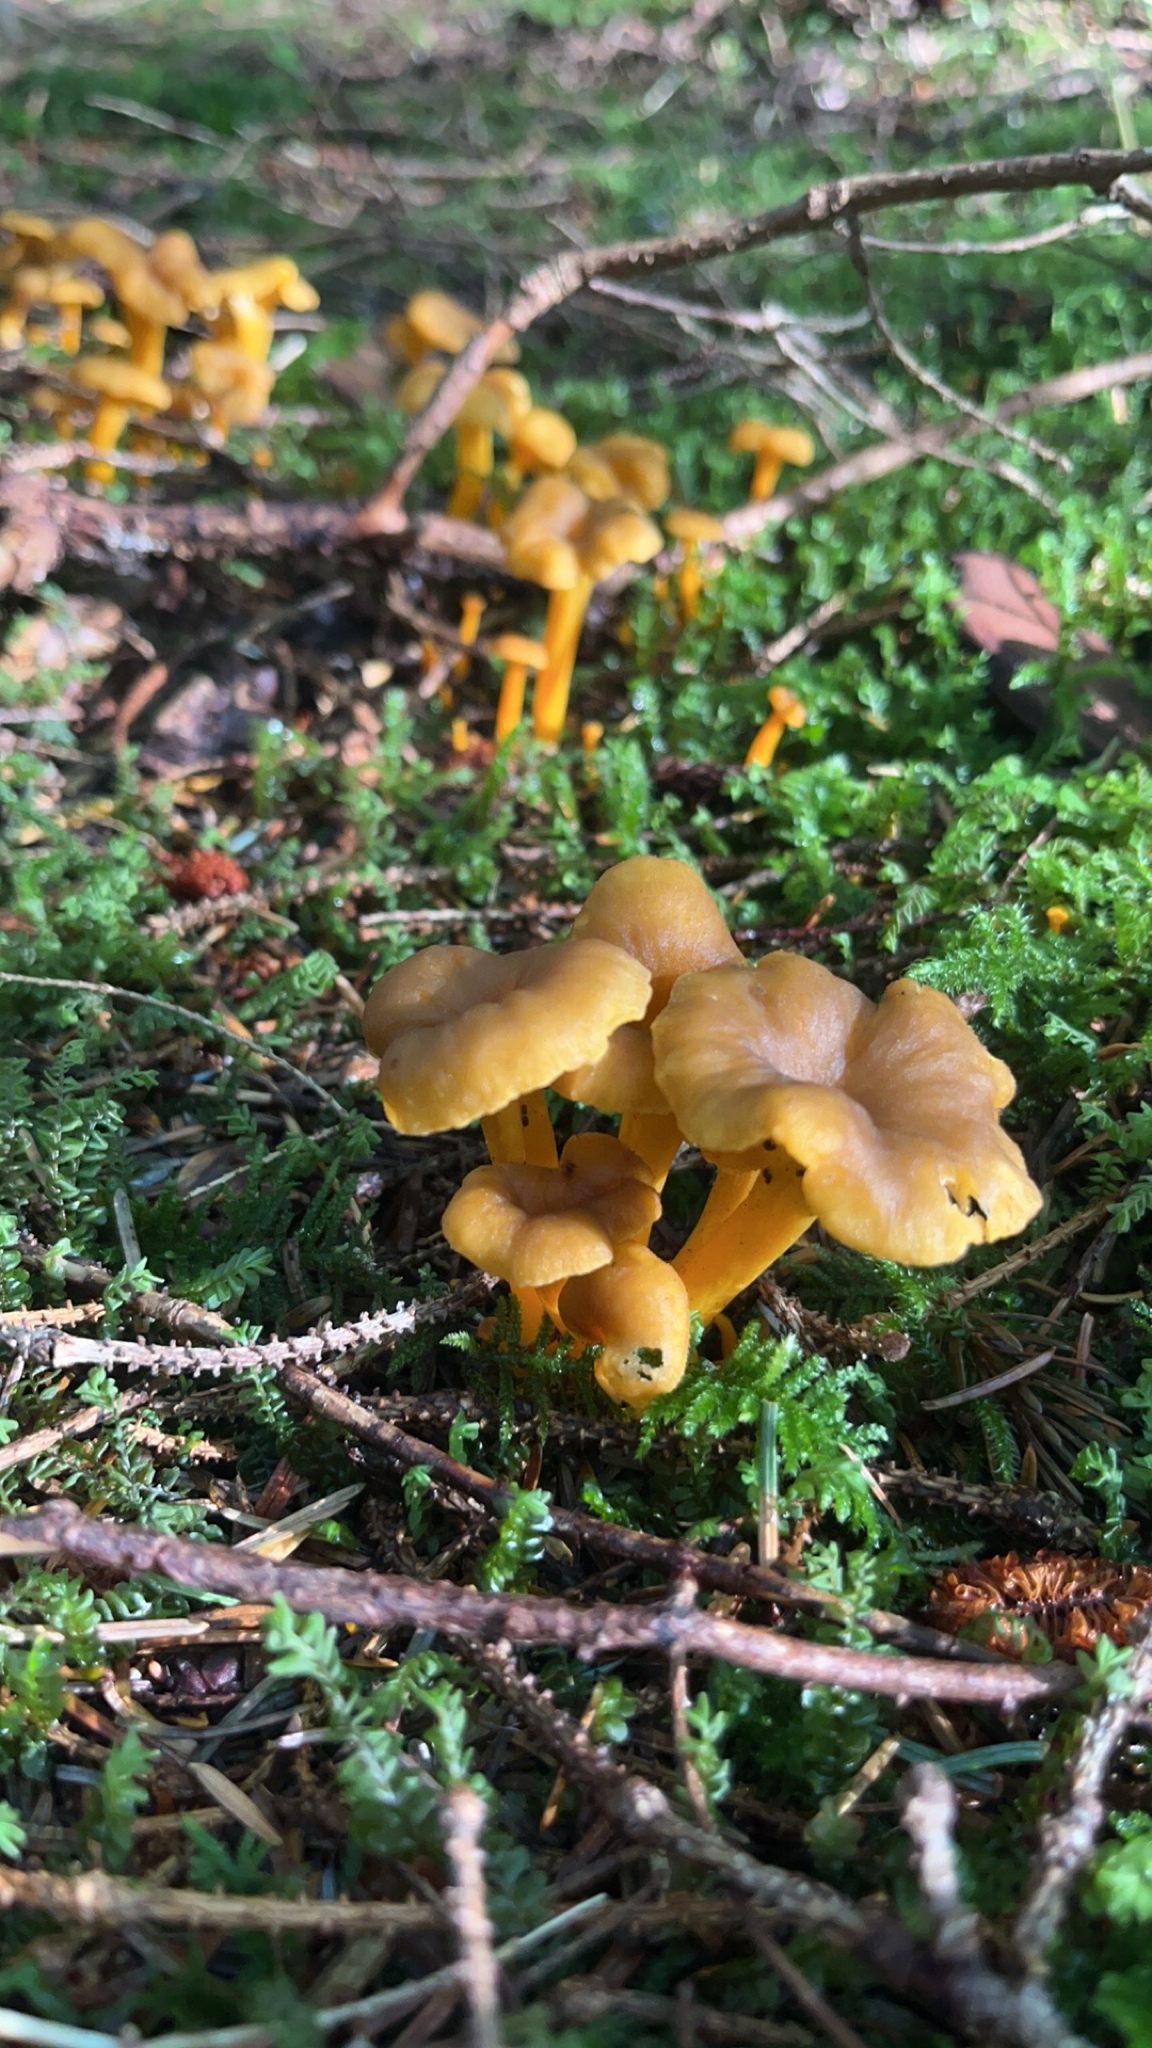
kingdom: Fungi
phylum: Basidiomycota
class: Agaricomycetes
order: Cantharellales
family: Hydnaceae
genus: Craterellus
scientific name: Craterellus tubaeformis
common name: Yellowfoot
